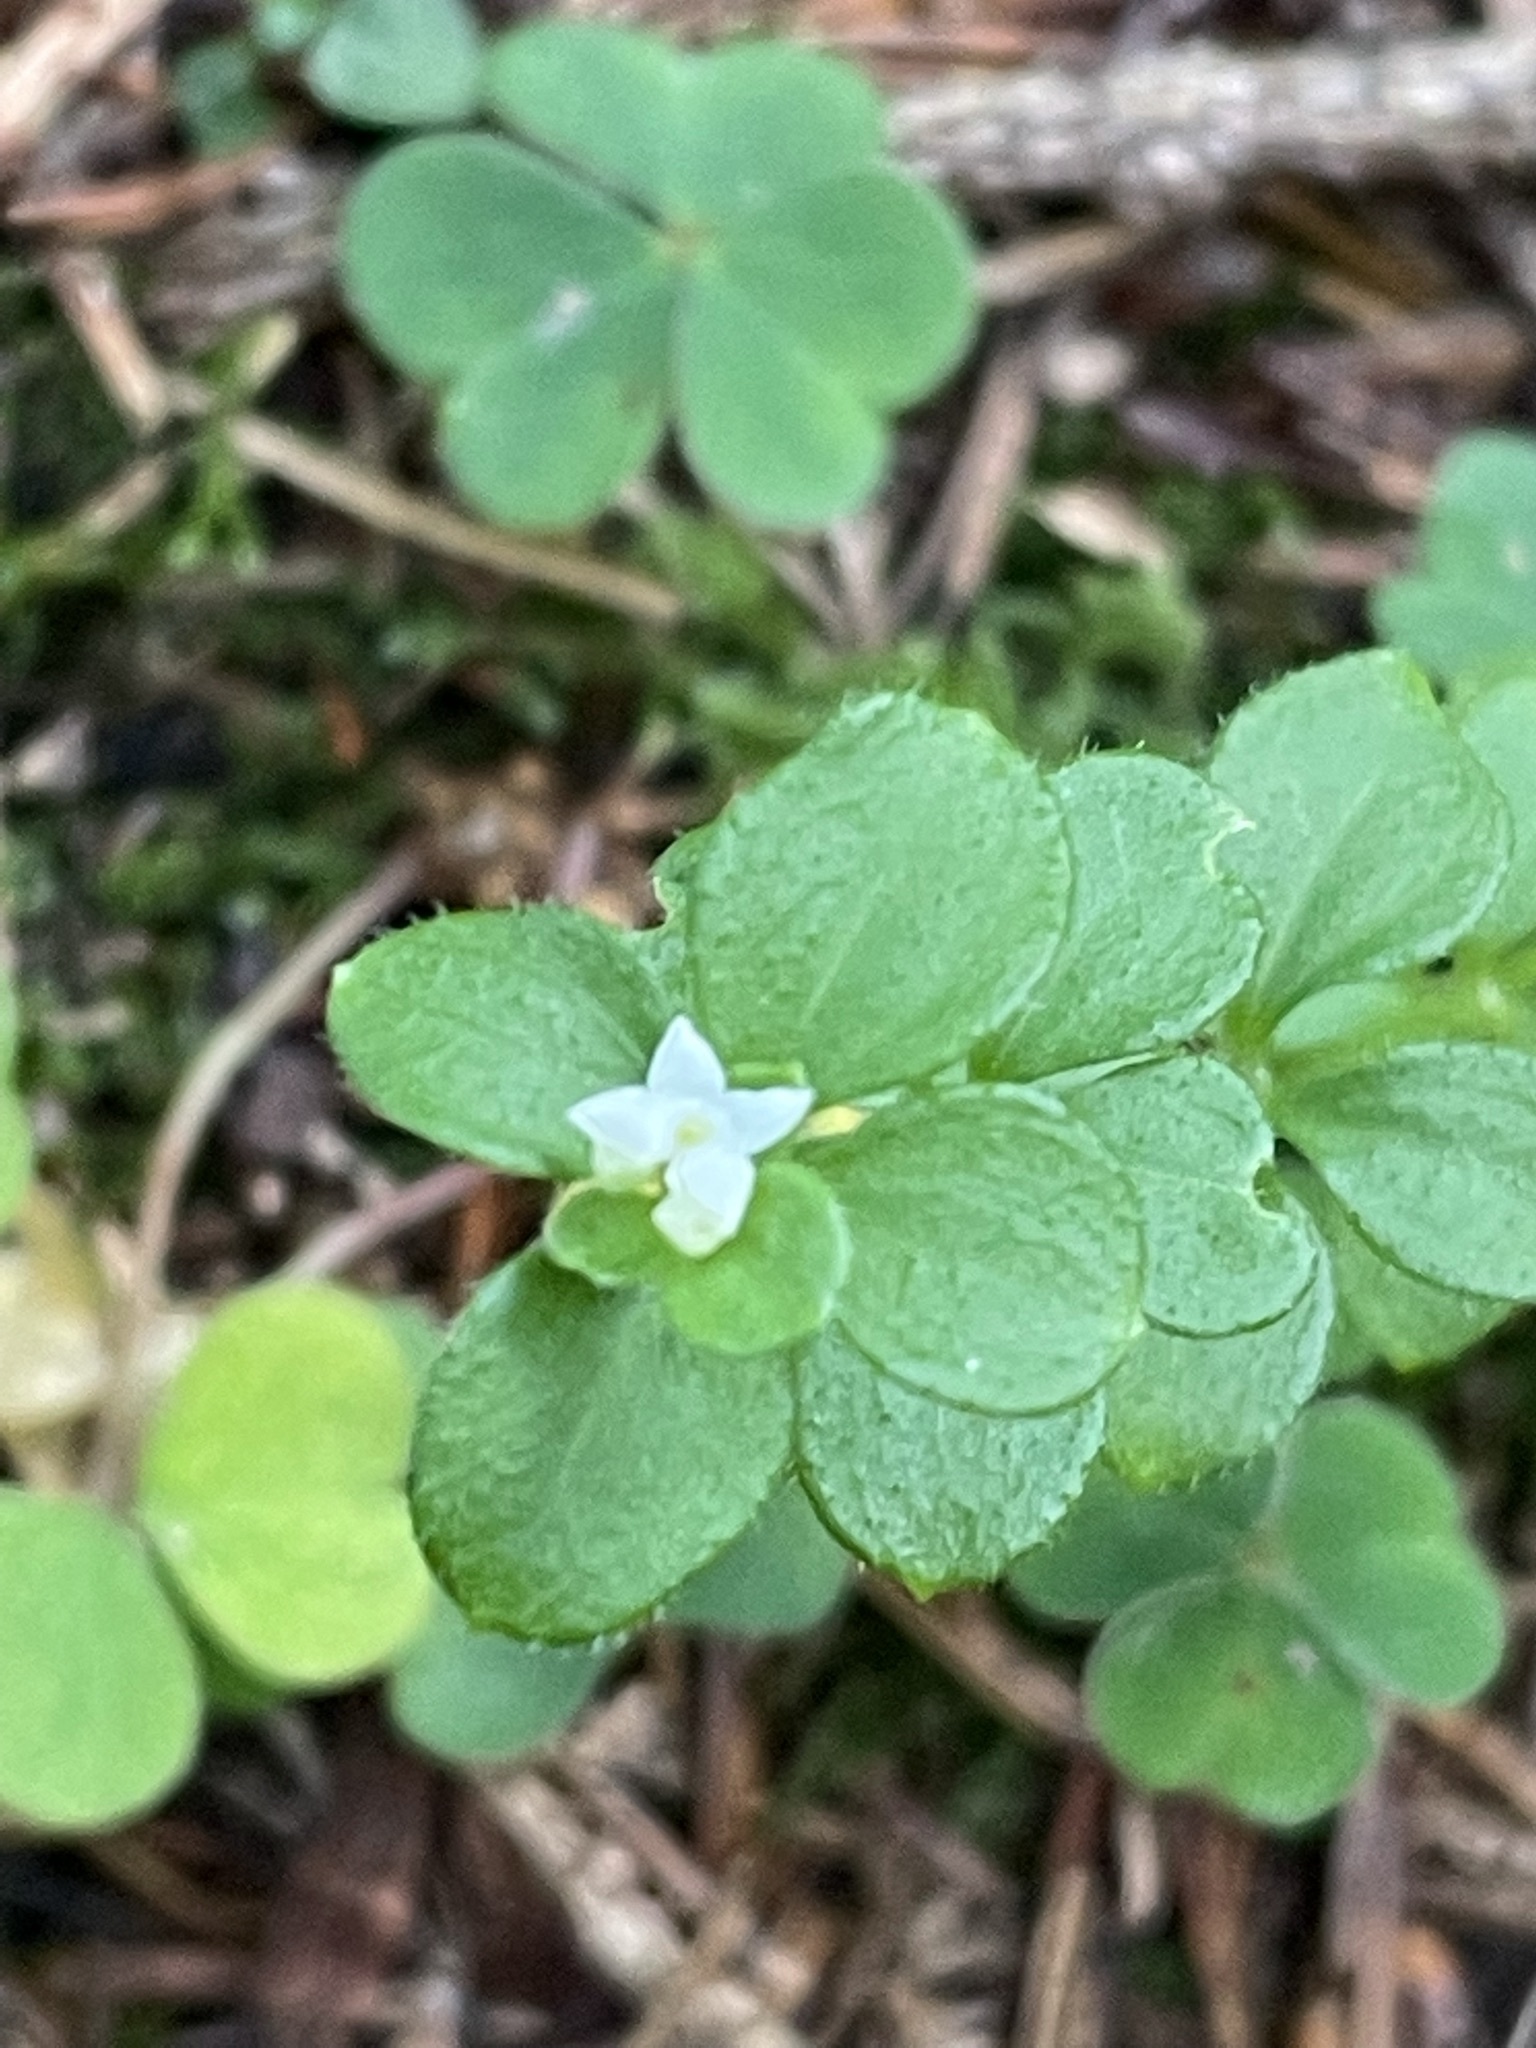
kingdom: Plantae
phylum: Tracheophyta
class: Magnoliopsida
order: Gentianales
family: Rubiaceae
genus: Galium
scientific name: Galium rotundifolium
